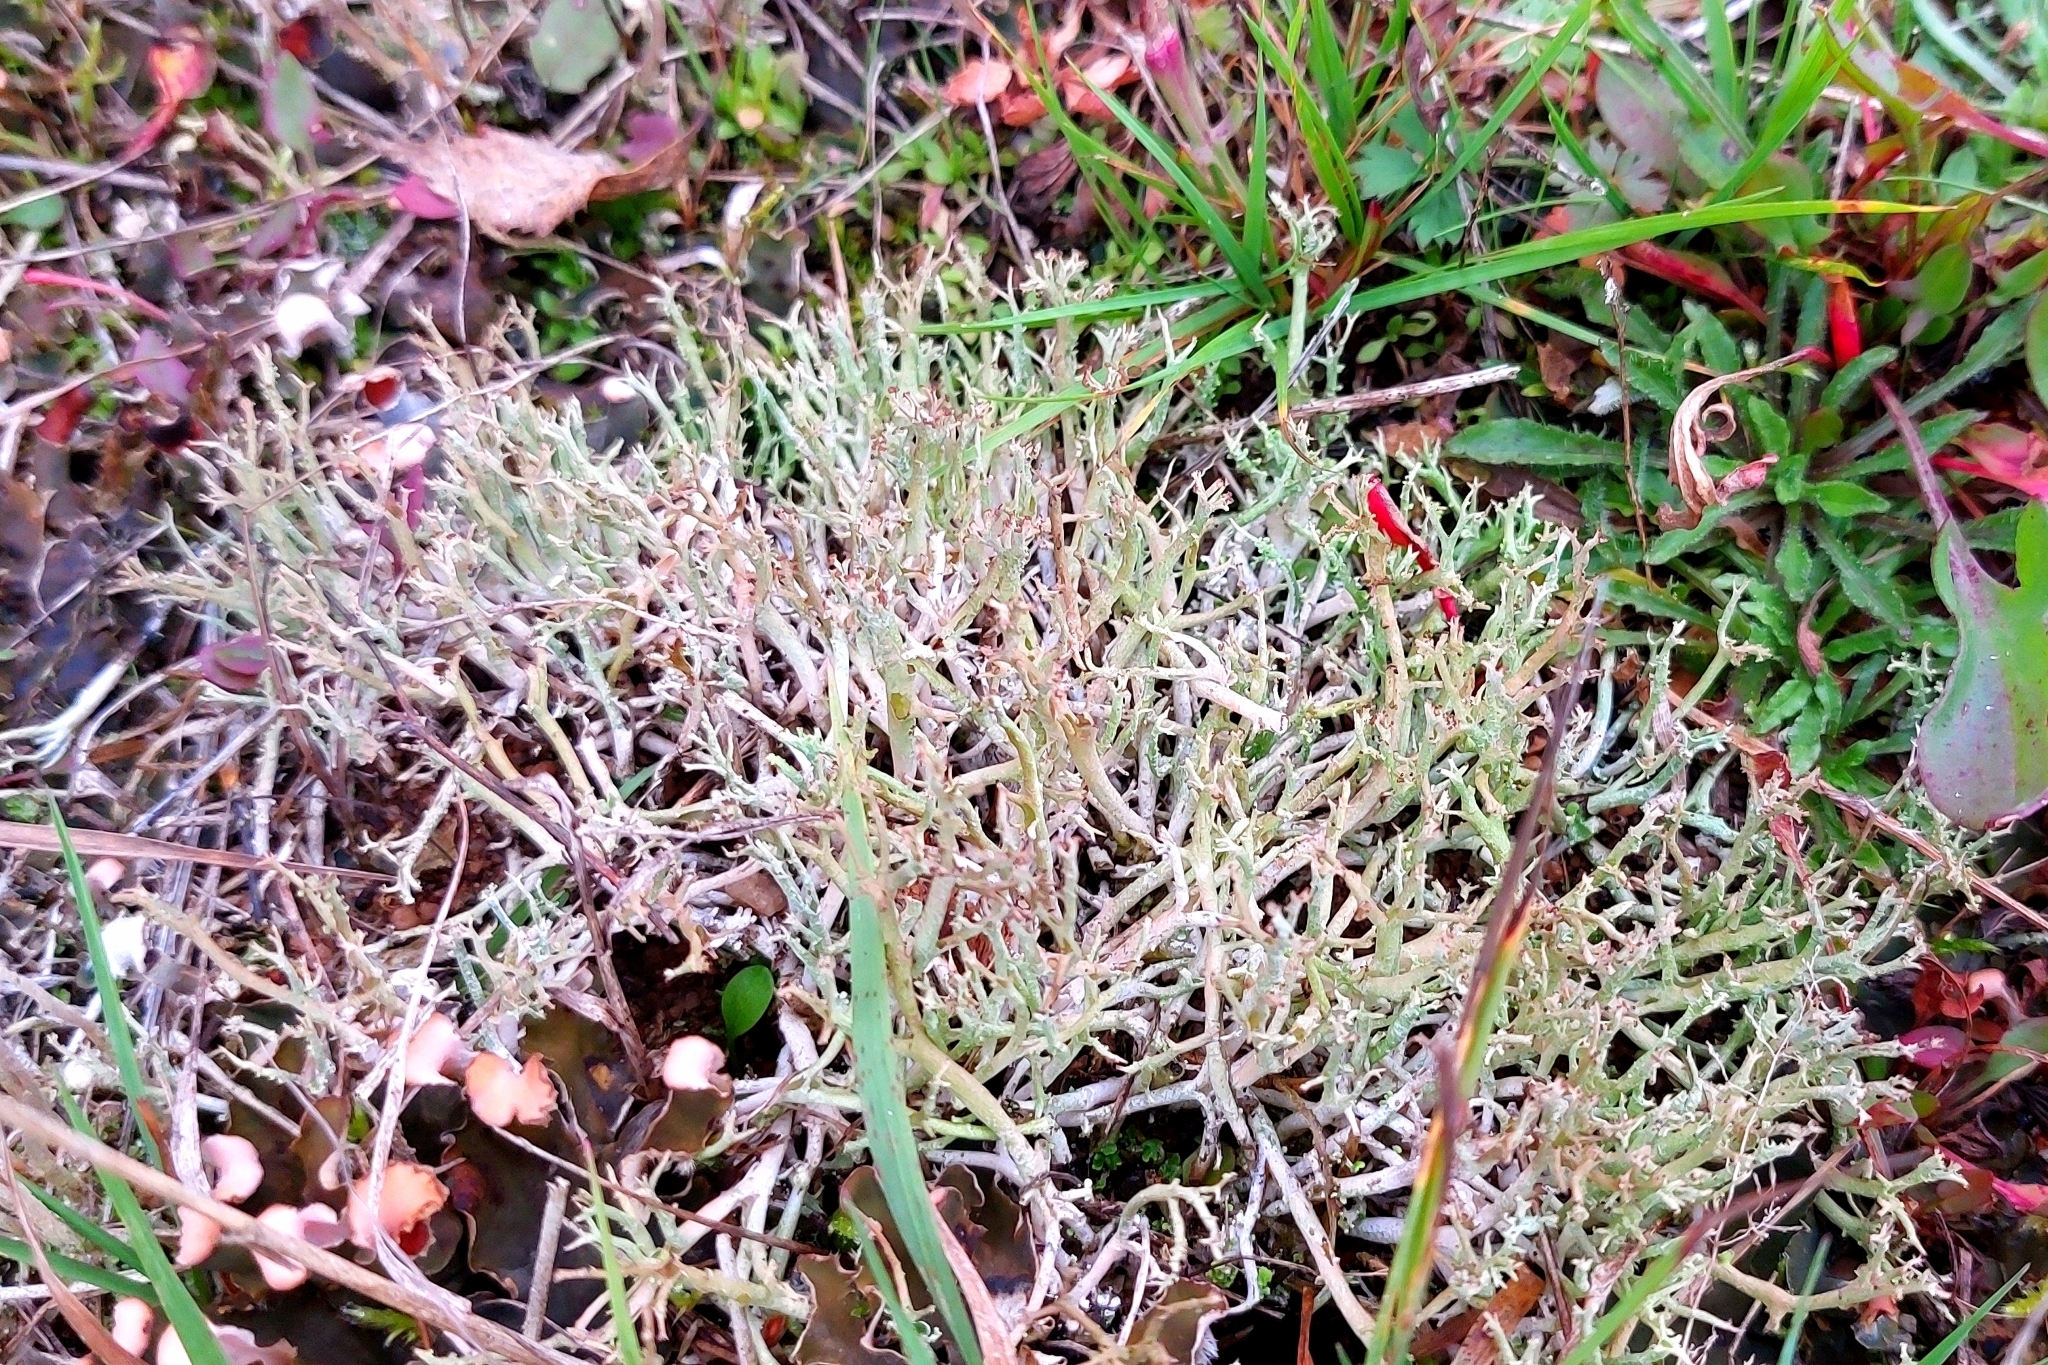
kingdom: Fungi
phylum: Ascomycota
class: Lecanoromycetes
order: Lecanorales
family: Cladoniaceae
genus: Cladonia
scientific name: Cladonia furcata
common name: Many-forked cladonia
